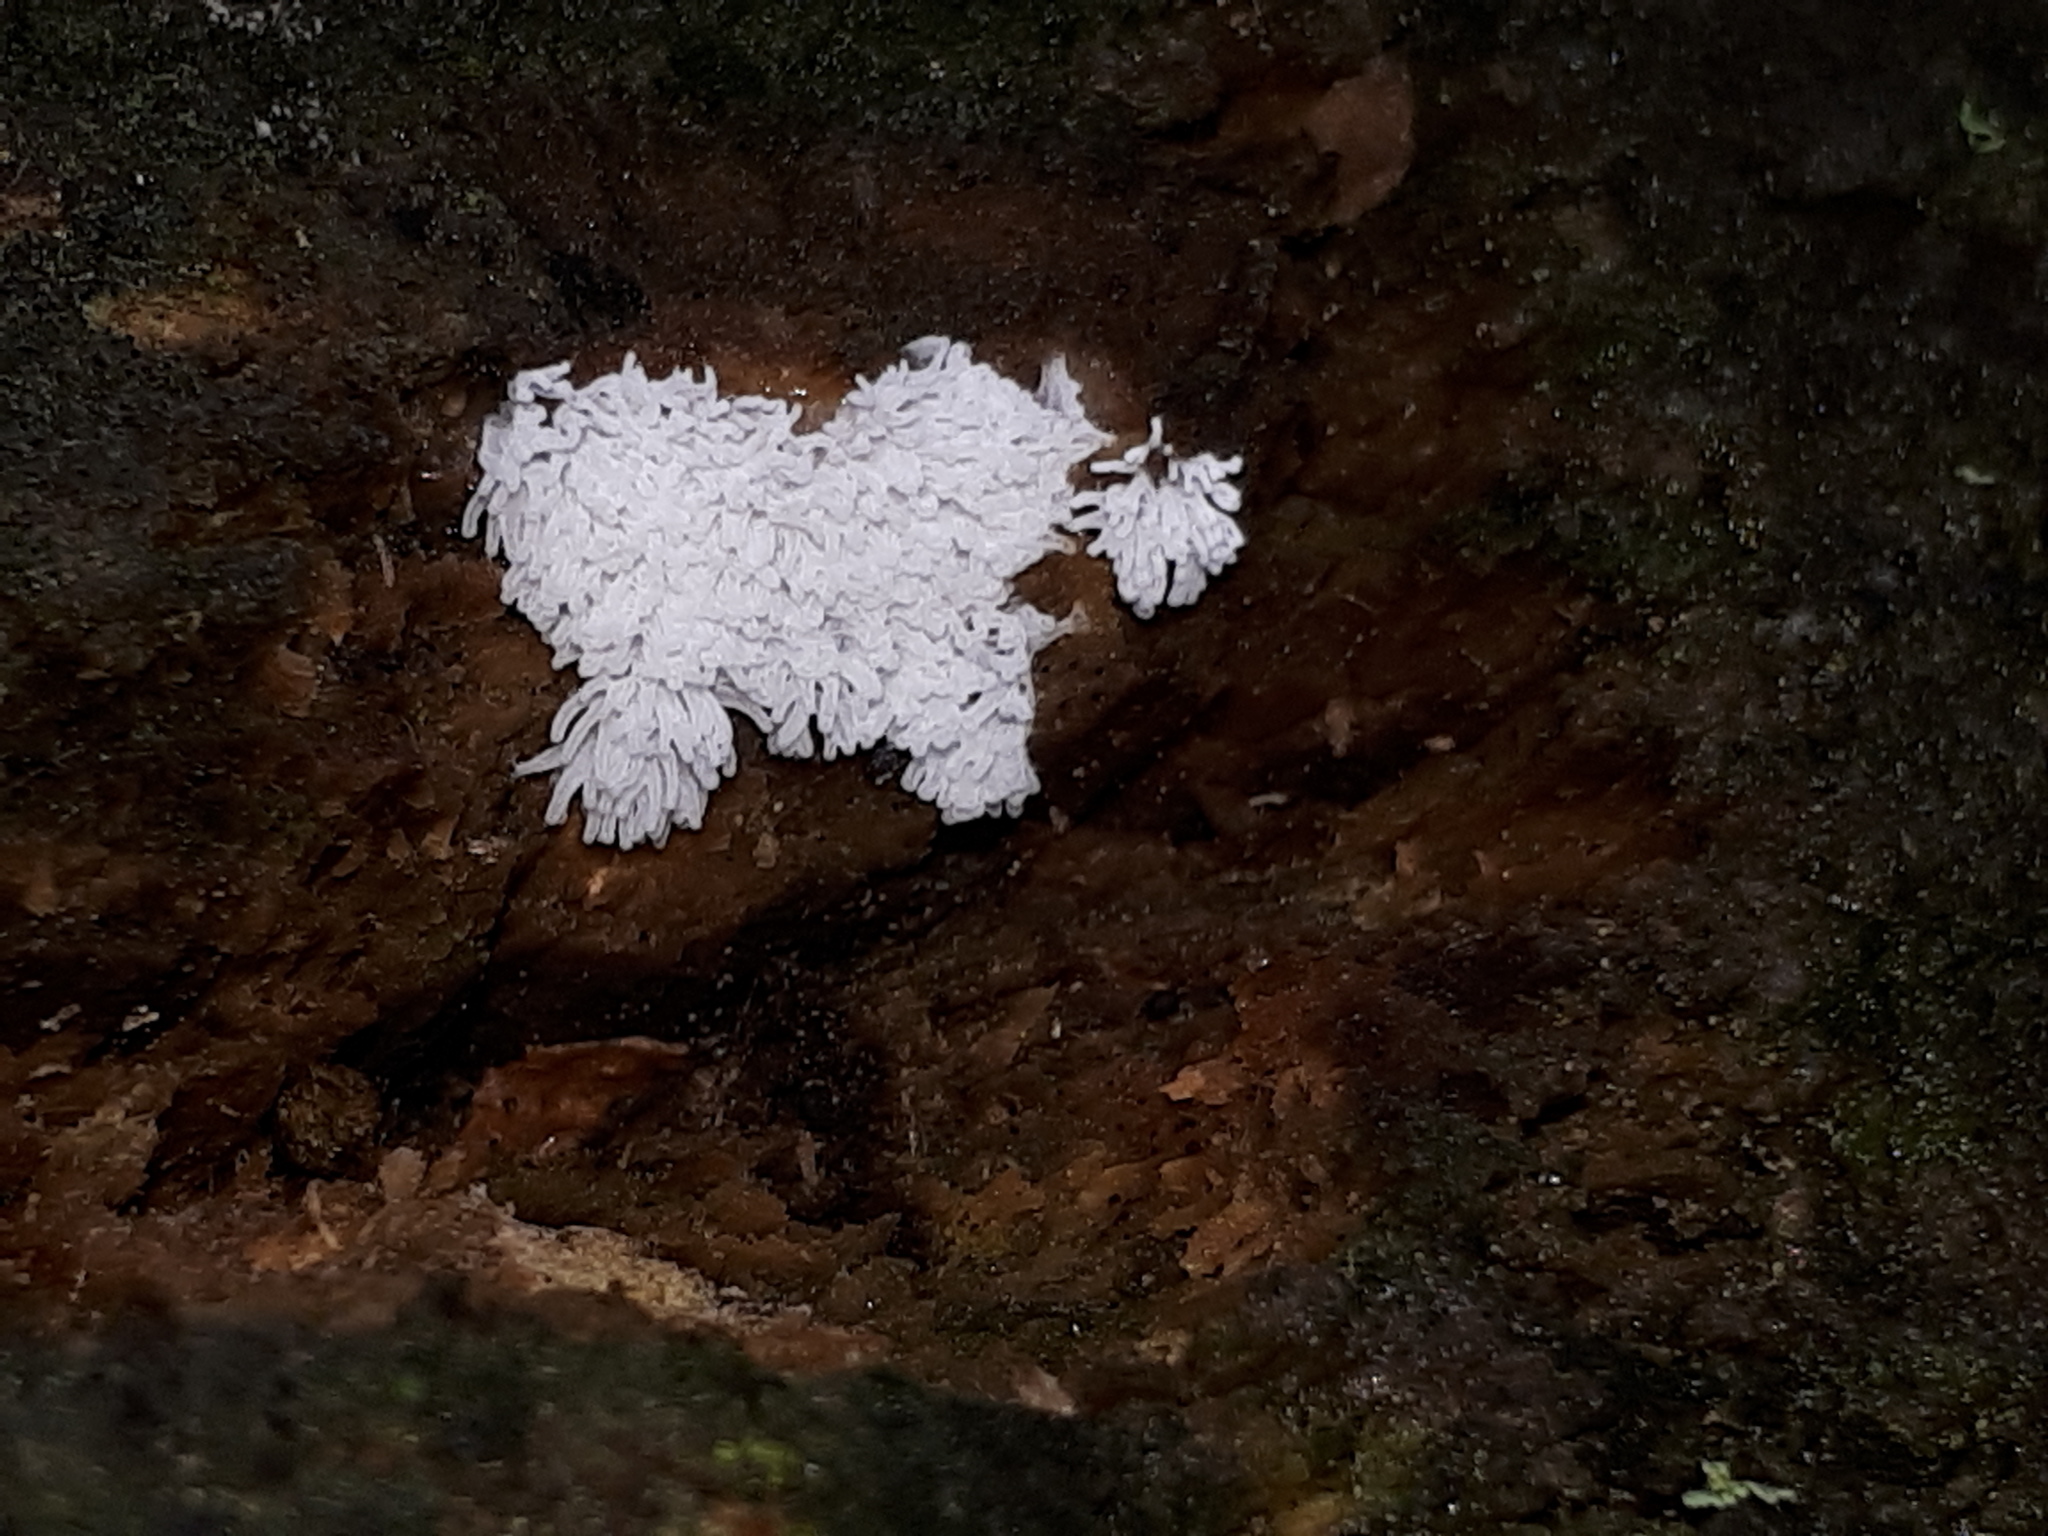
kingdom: Protozoa
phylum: Mycetozoa
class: Protosteliomycetes
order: Ceratiomyxales
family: Ceratiomyxaceae
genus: Ceratiomyxa
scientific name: Ceratiomyxa fruticulosa
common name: Honeycomb coral slime mold
